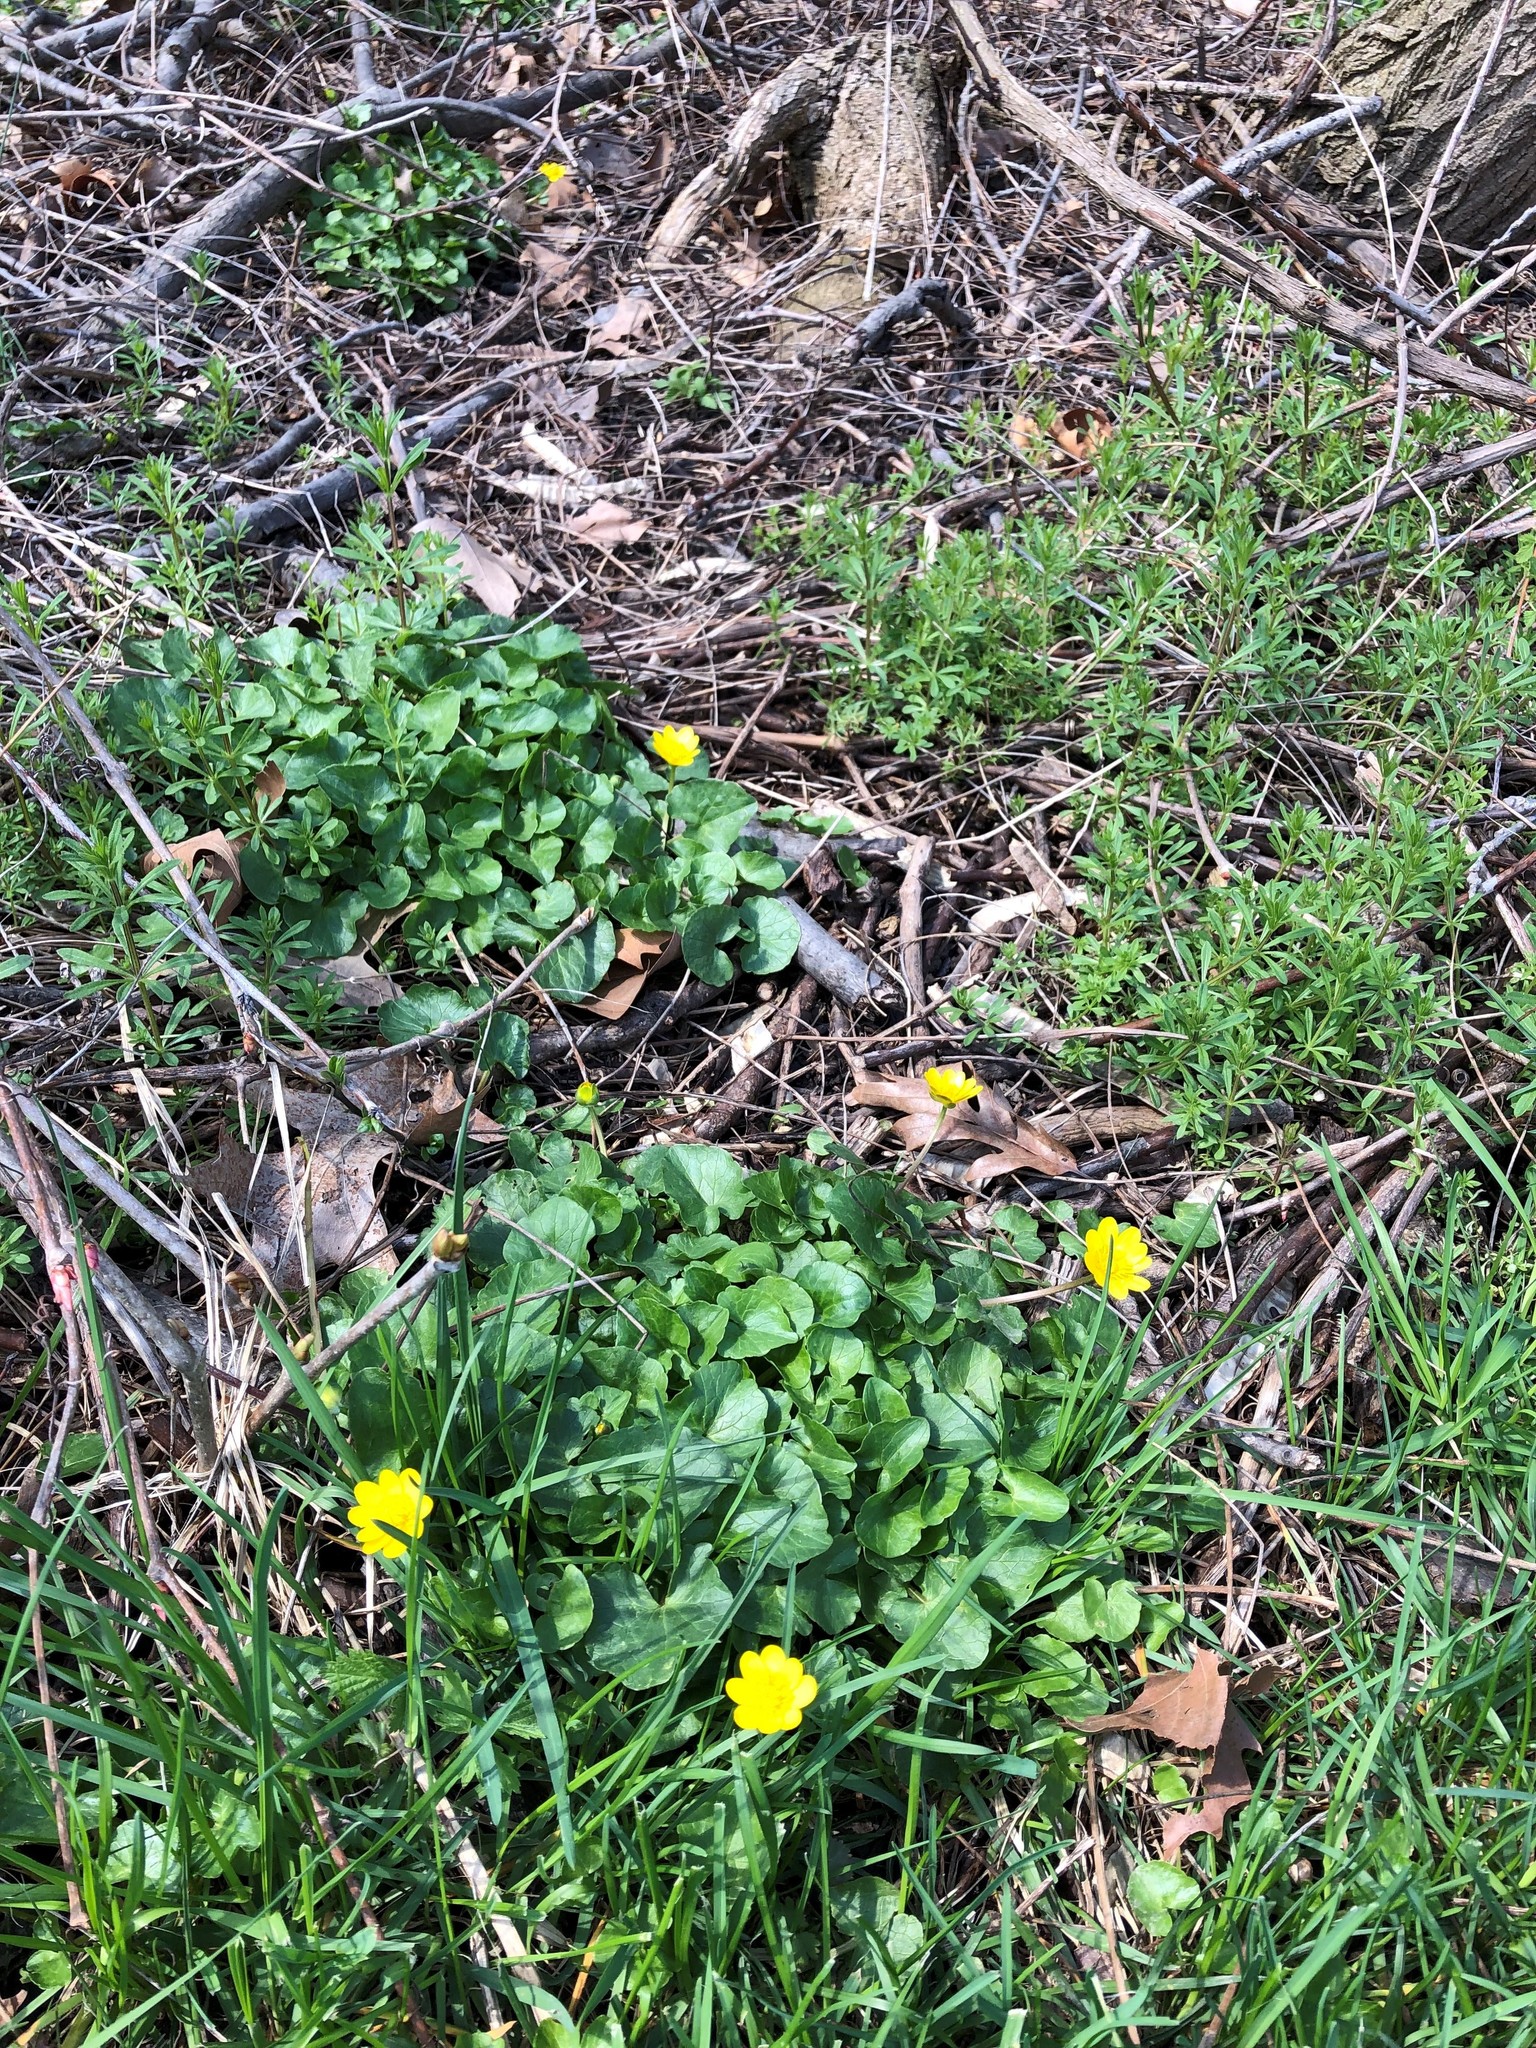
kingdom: Plantae
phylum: Tracheophyta
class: Magnoliopsida
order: Ranunculales
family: Ranunculaceae
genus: Ficaria
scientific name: Ficaria verna
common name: Lesser celandine
